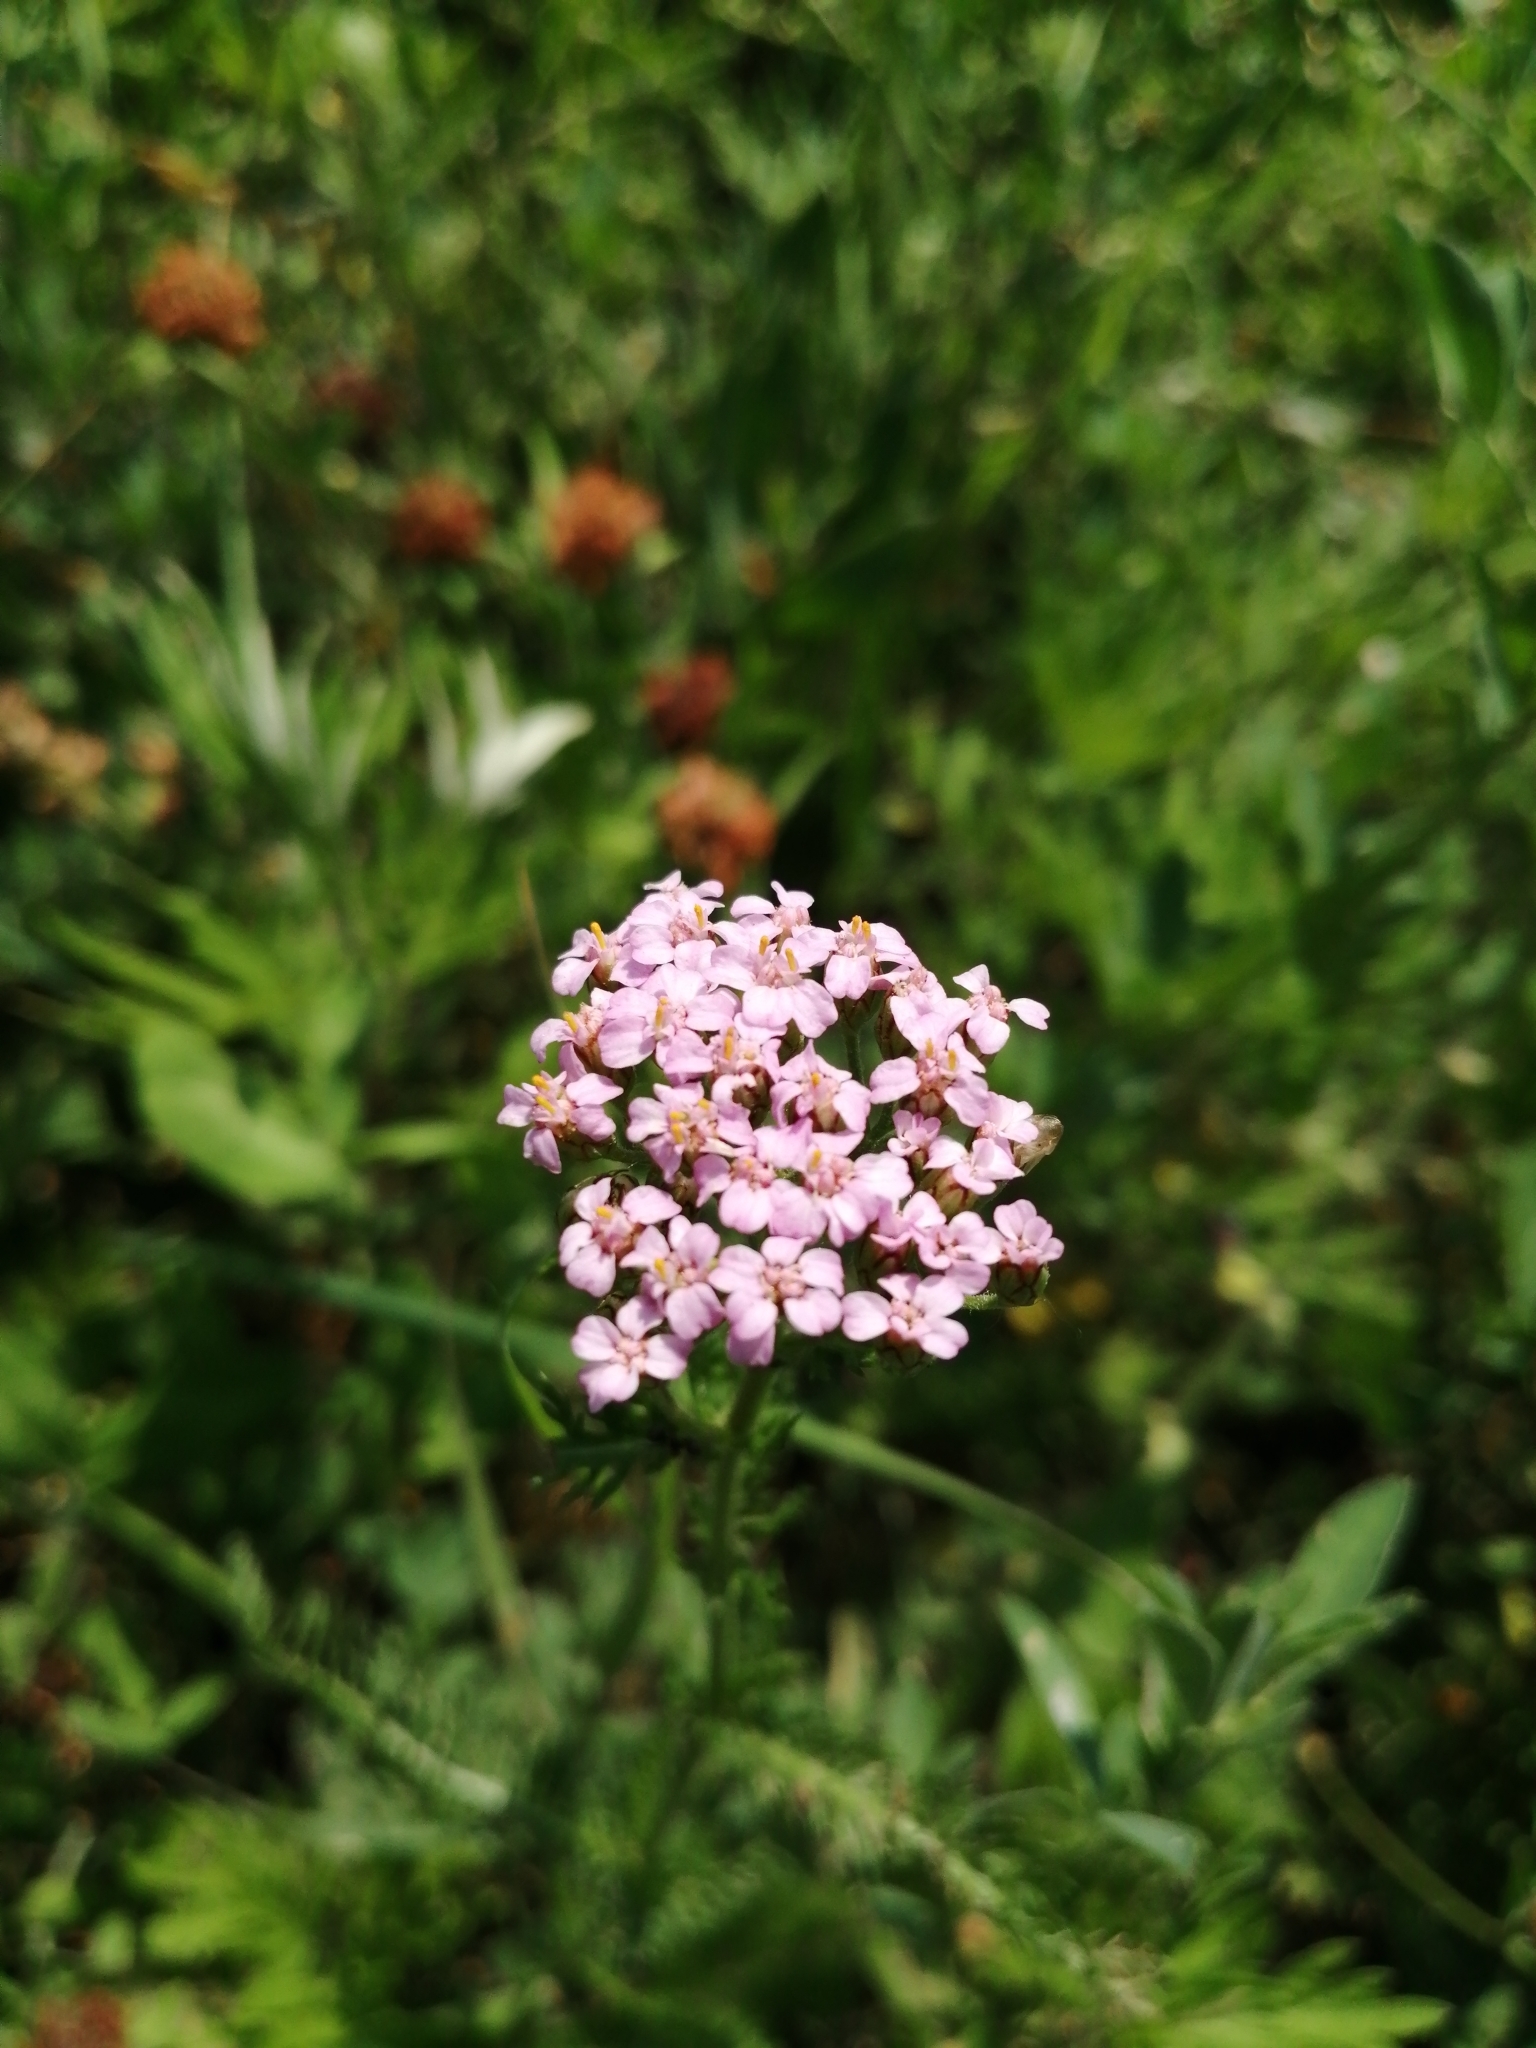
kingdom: Plantae
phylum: Tracheophyta
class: Magnoliopsida
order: Asterales
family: Asteraceae
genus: Achillea
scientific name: Achillea millefolium
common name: Yarrow
